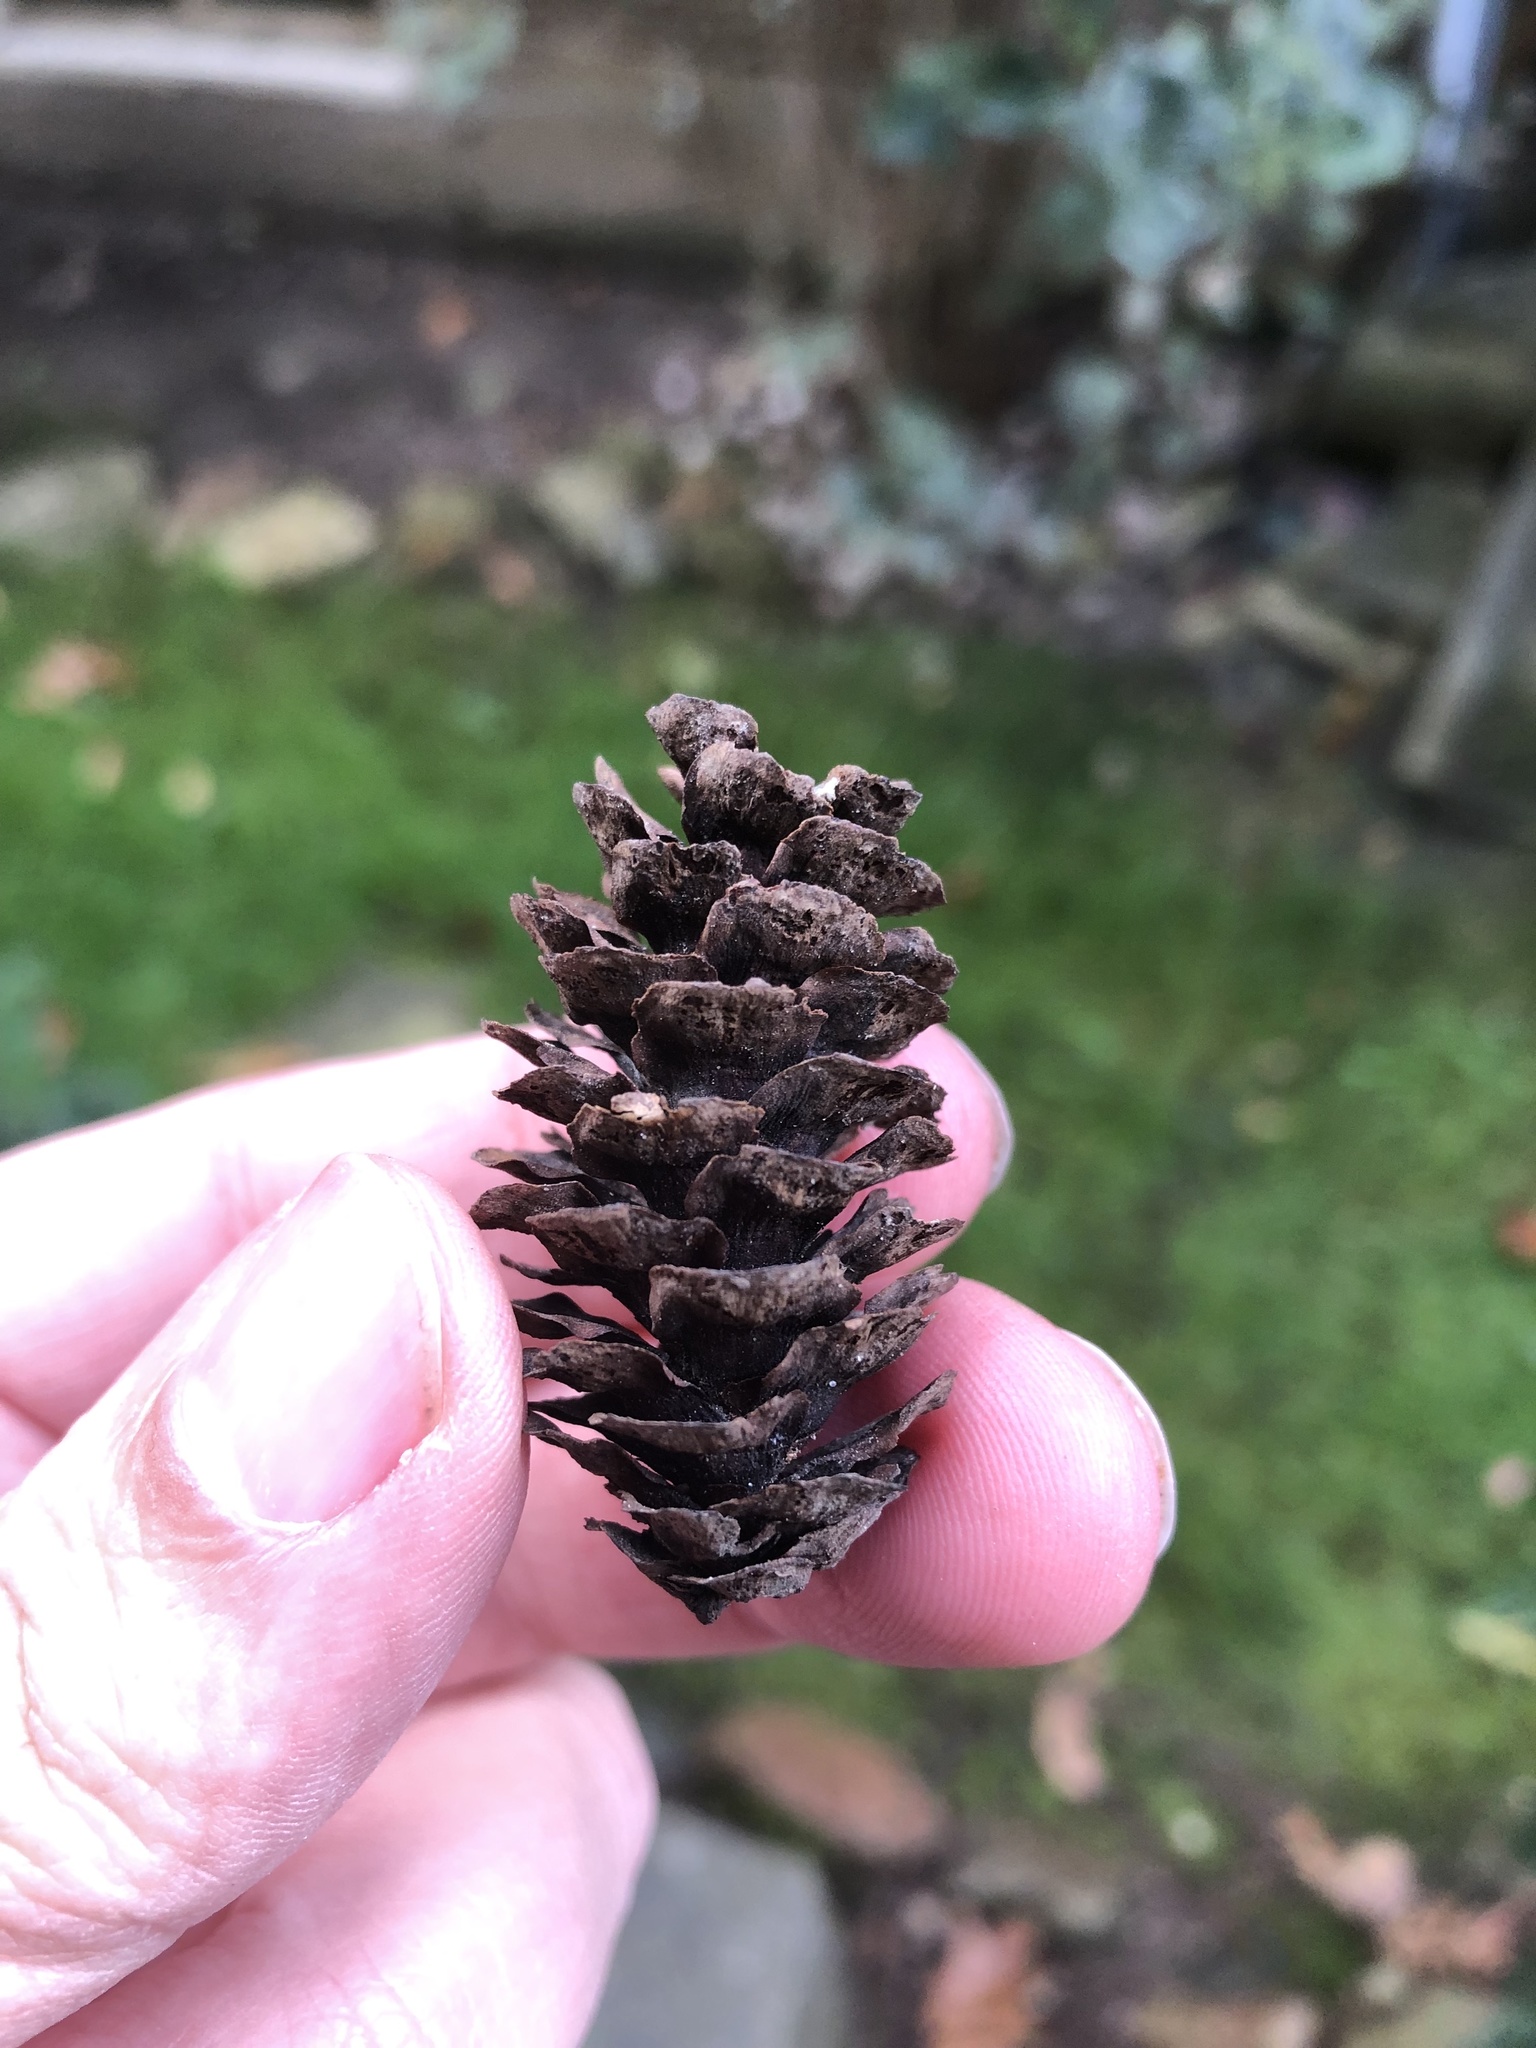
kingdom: Plantae
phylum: Tracheophyta
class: Pinopsida
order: Pinales
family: Pinaceae
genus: Picea
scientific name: Picea glauca
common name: White spruce
